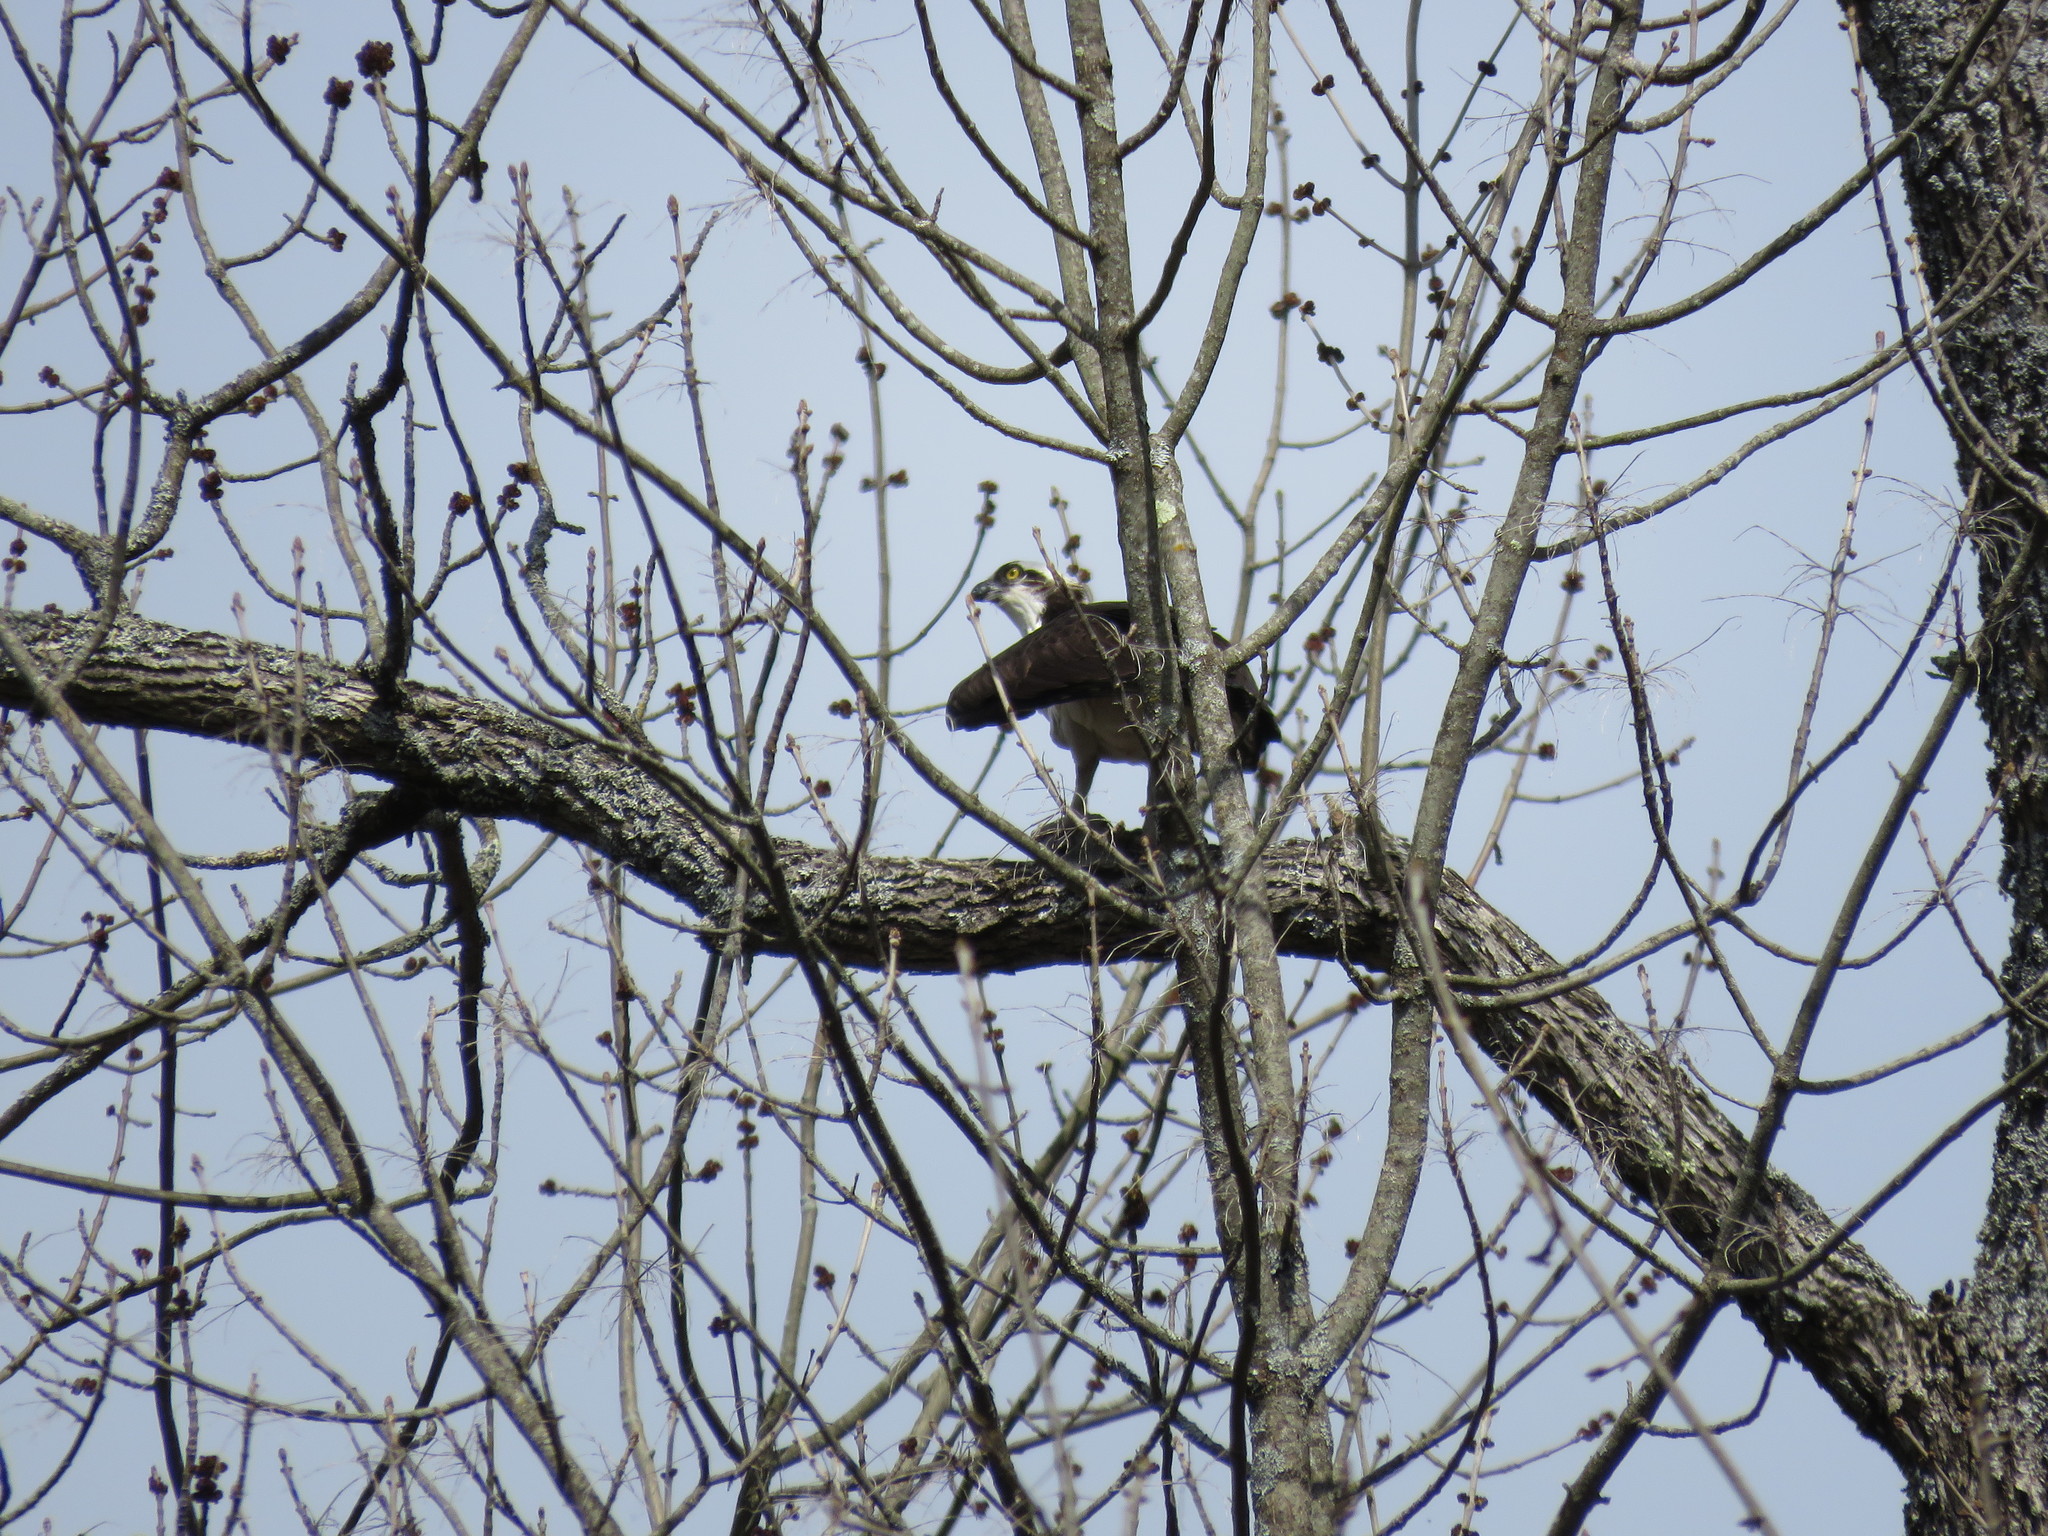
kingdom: Animalia
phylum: Chordata
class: Aves
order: Accipitriformes
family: Pandionidae
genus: Pandion
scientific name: Pandion haliaetus
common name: Osprey
